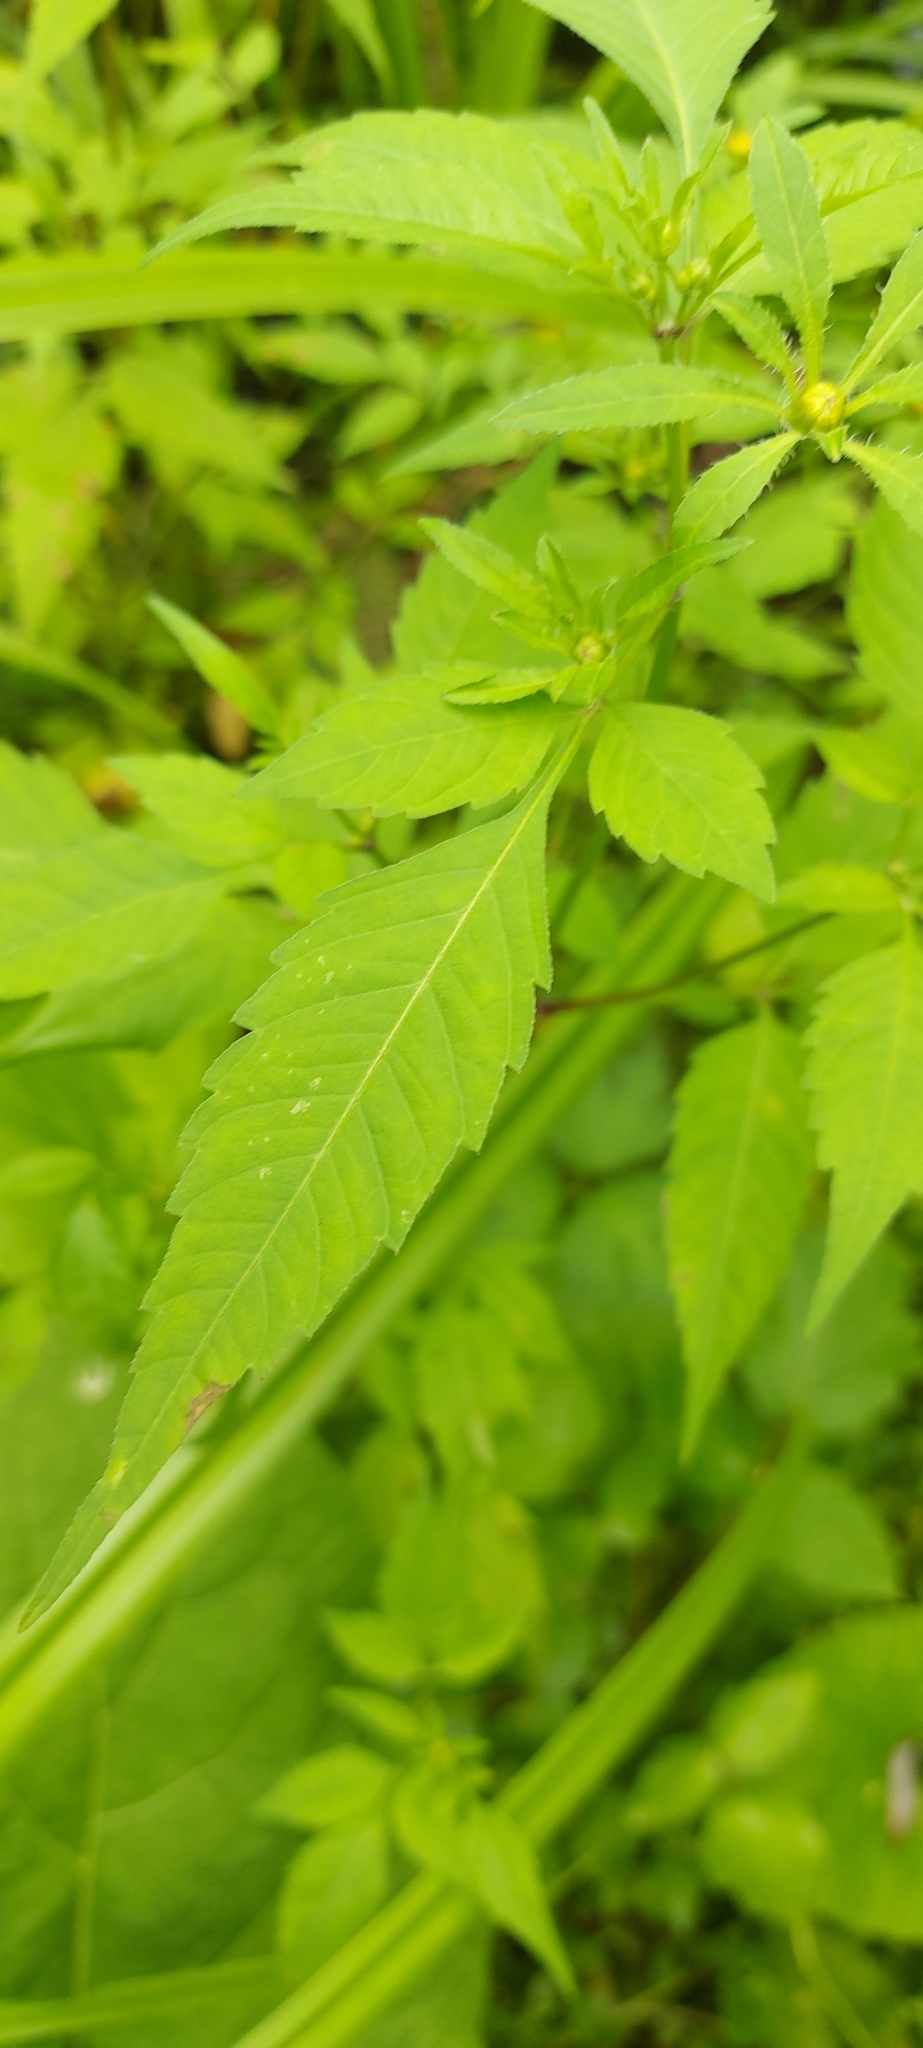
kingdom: Plantae
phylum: Tracheophyta
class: Magnoliopsida
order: Asterales
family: Asteraceae
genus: Bidens
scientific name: Bidens frondosa
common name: Beggarticks
